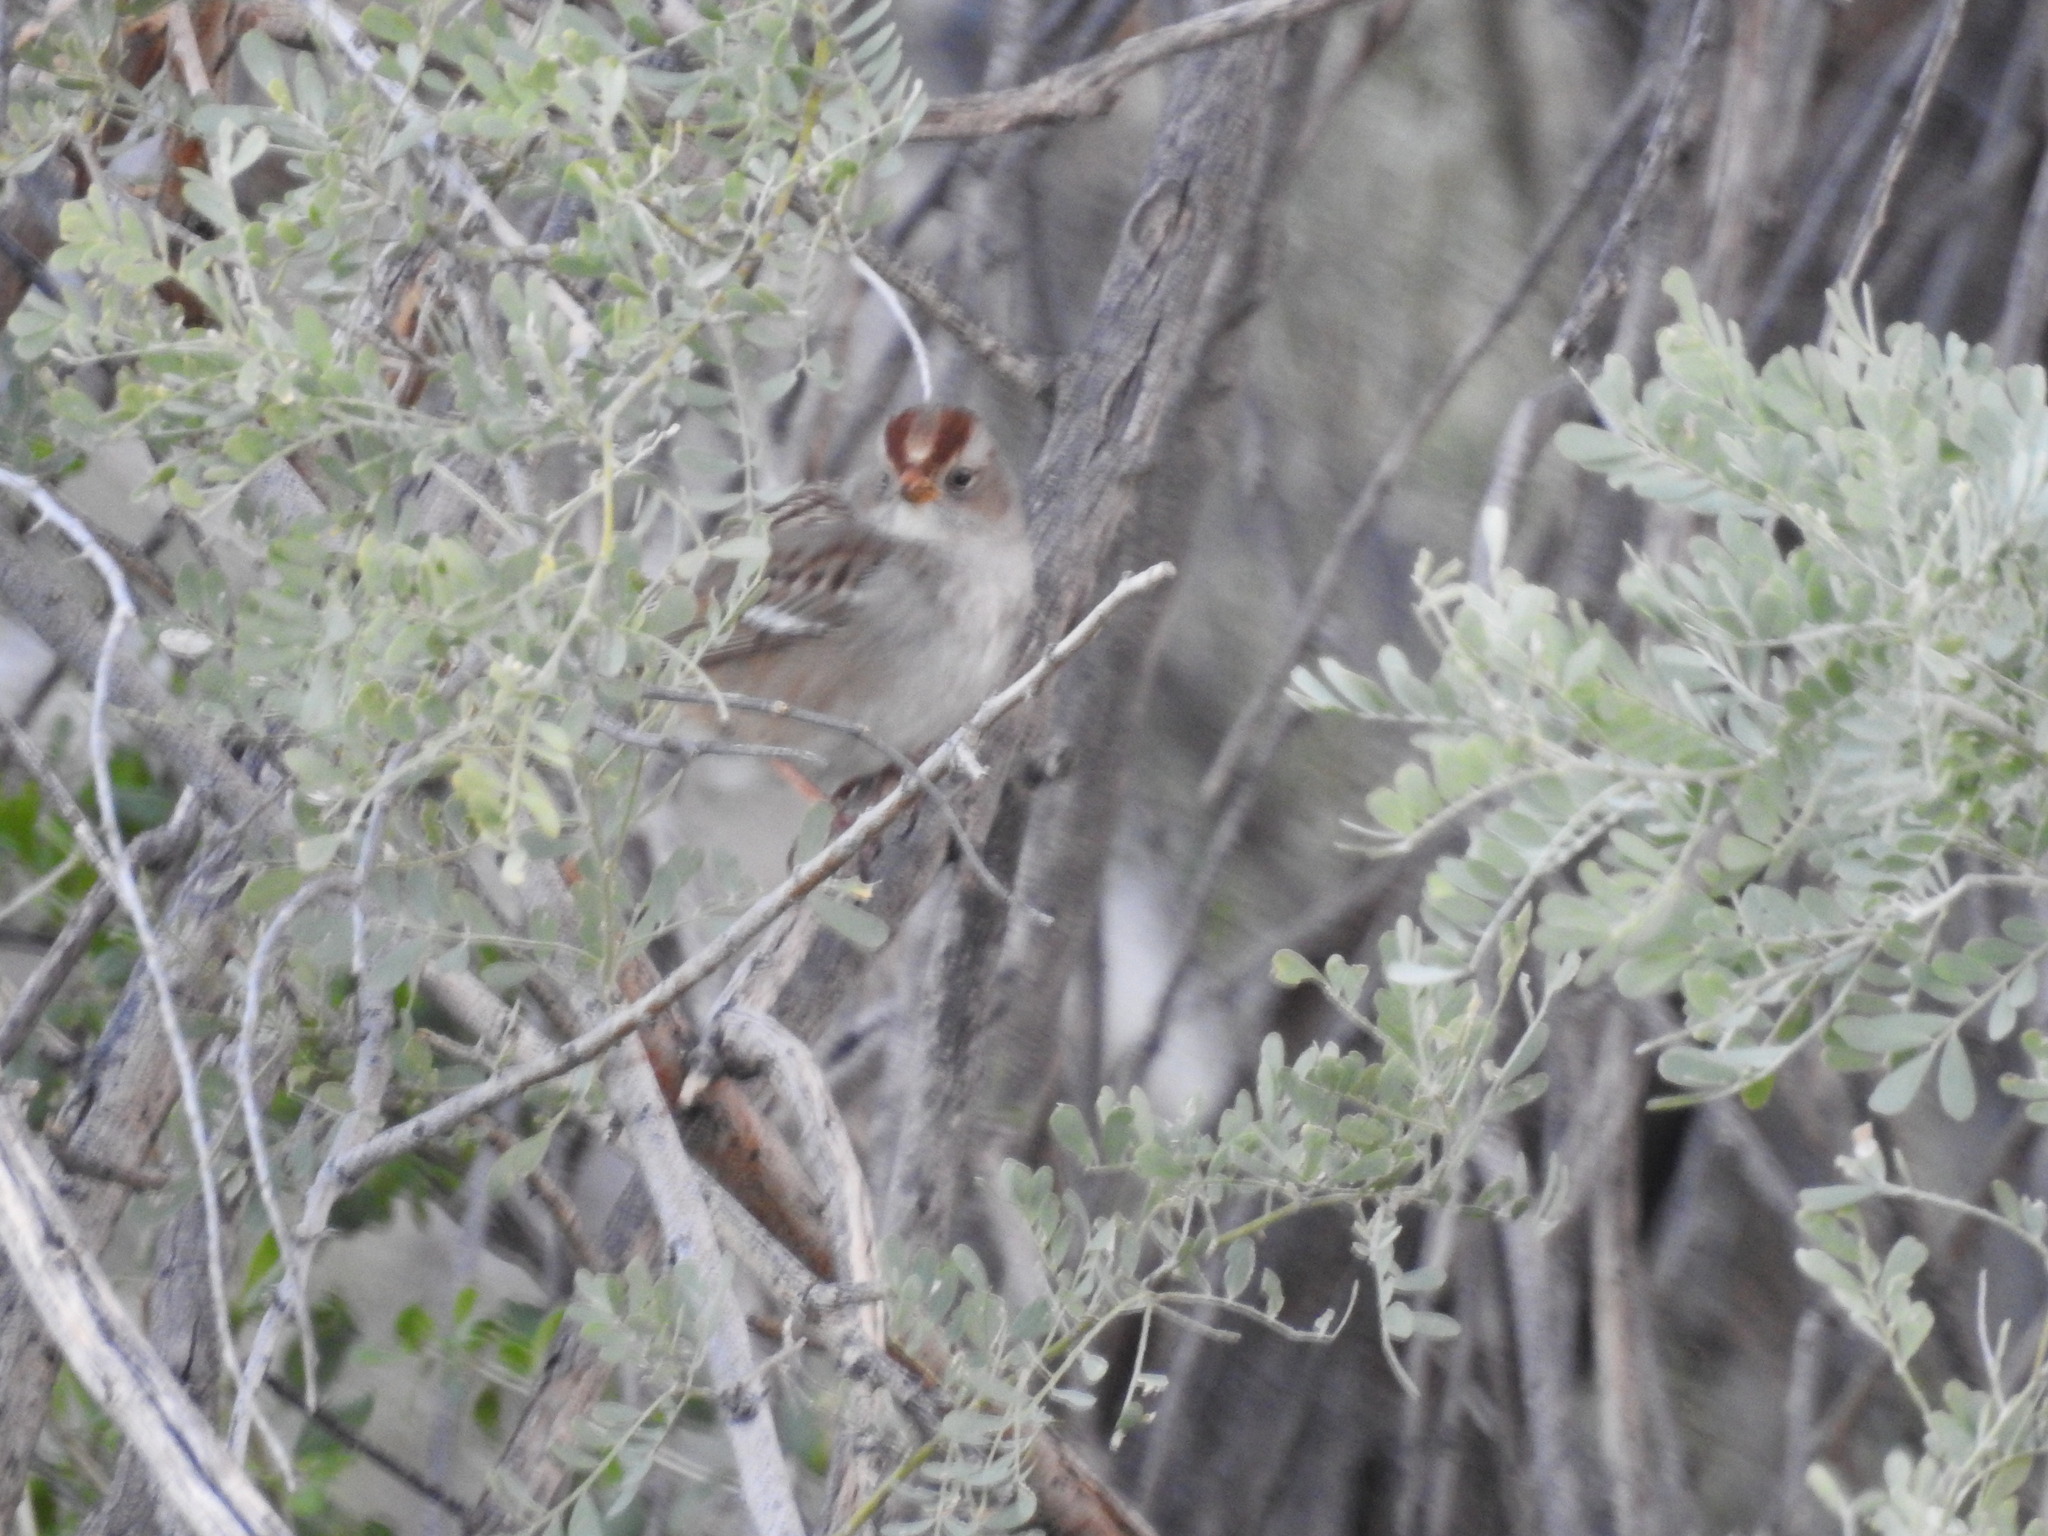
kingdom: Animalia
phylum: Chordata
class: Aves
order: Passeriformes
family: Passerellidae
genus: Zonotrichia
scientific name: Zonotrichia leucophrys
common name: White-crowned sparrow
